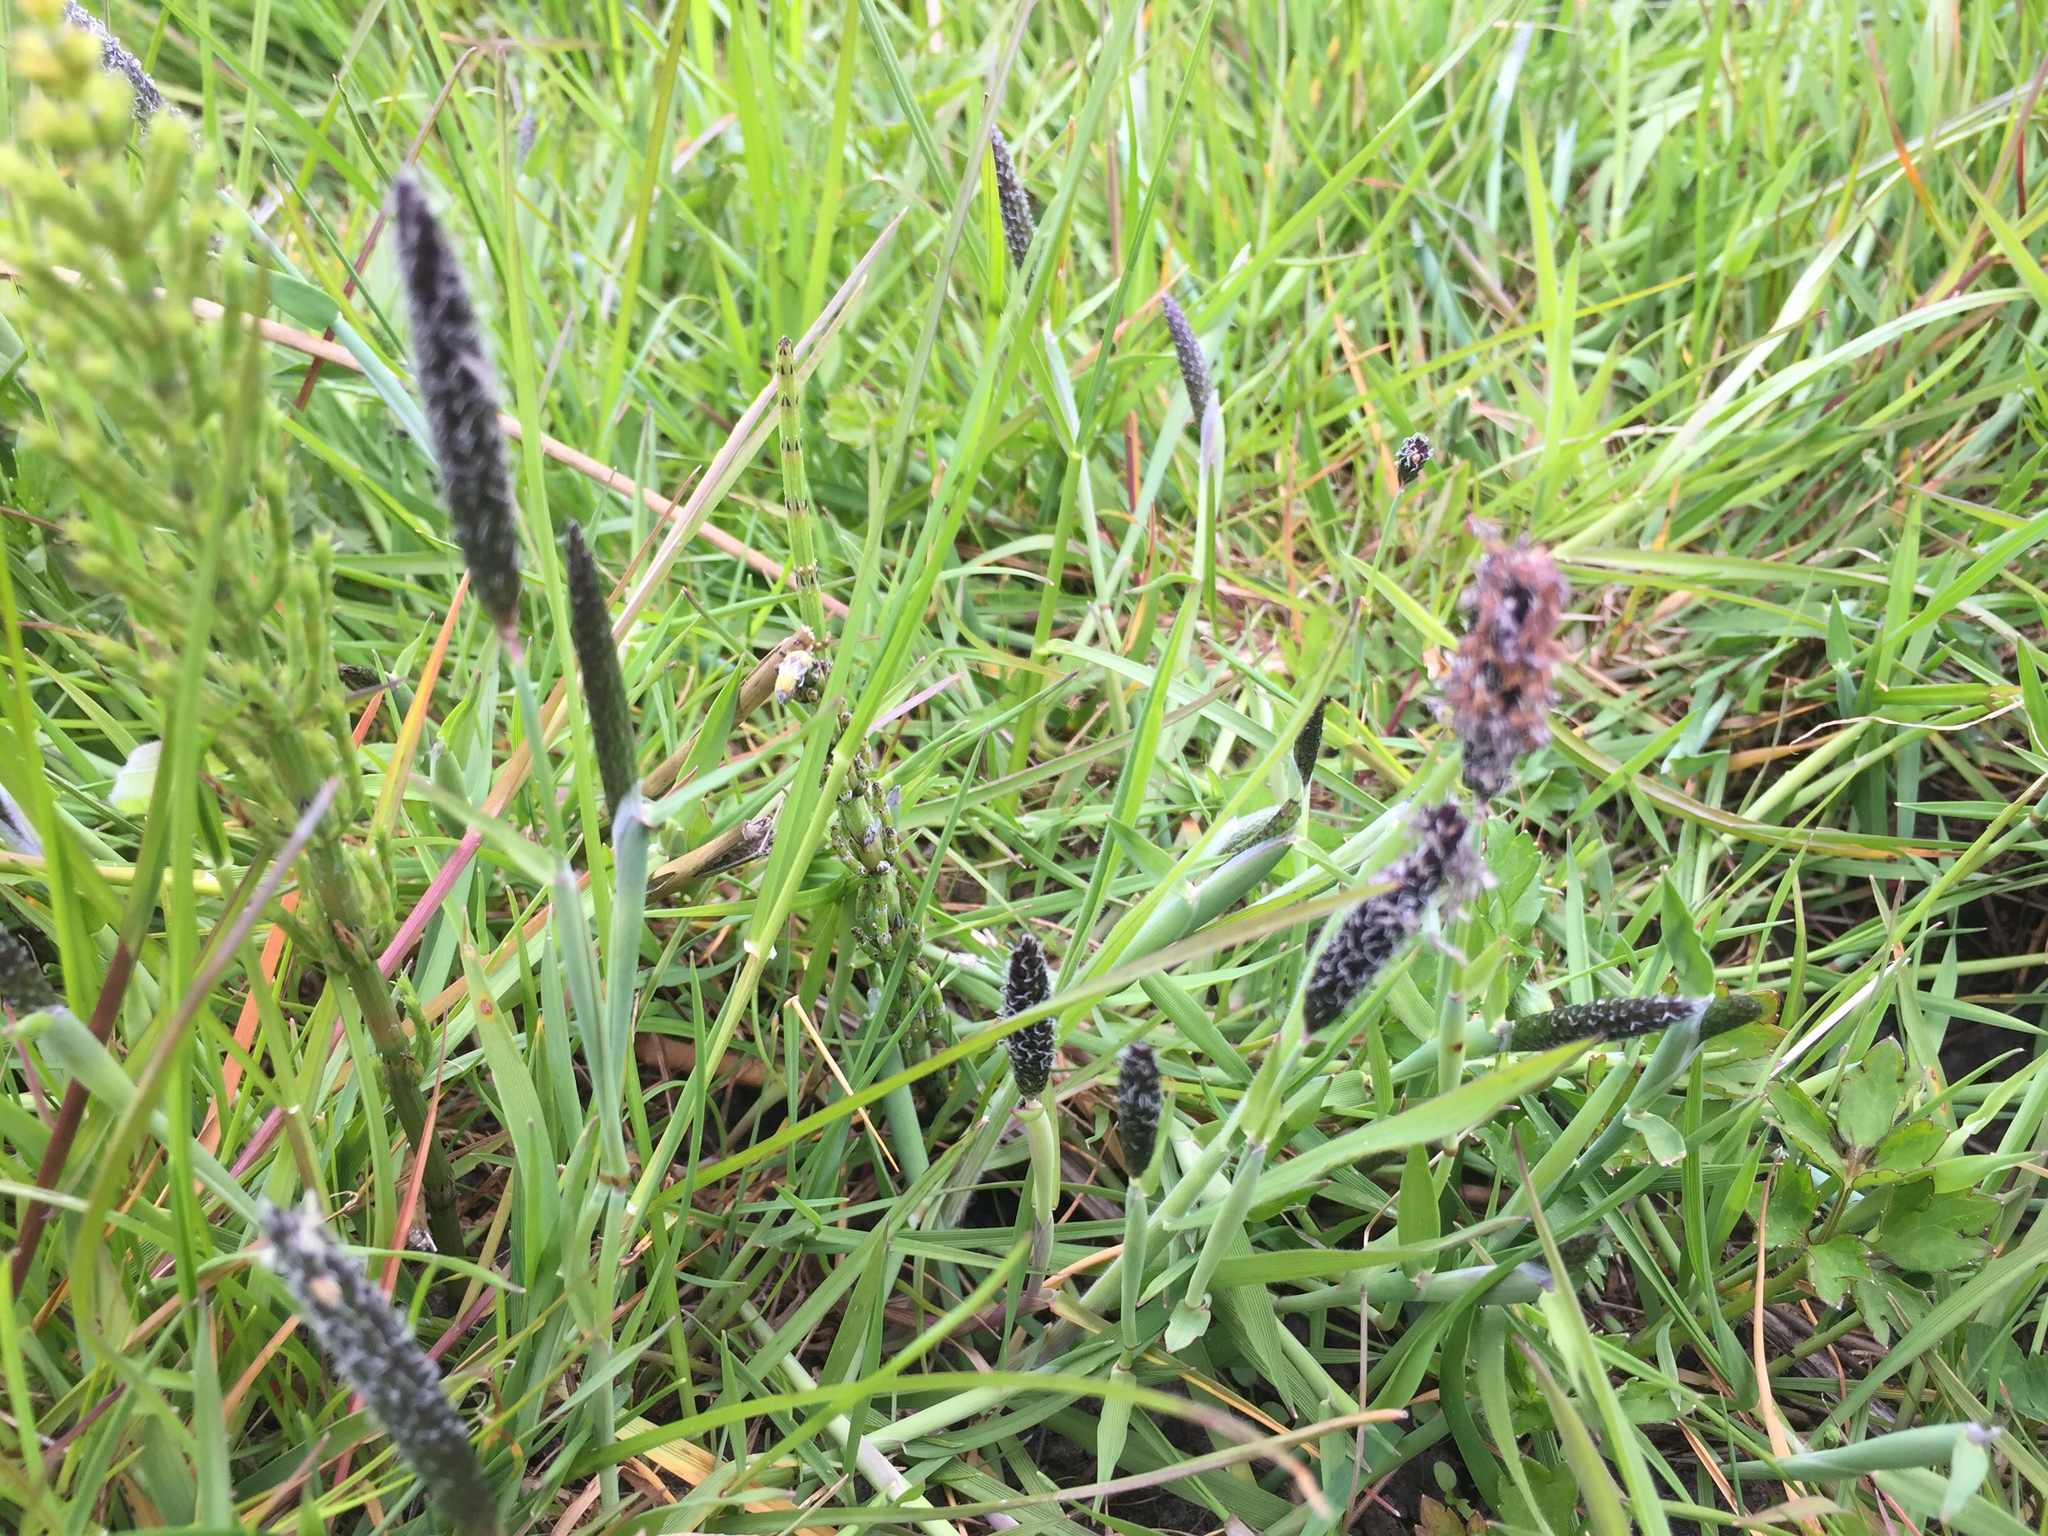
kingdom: Plantae
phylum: Tracheophyta
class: Liliopsida
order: Poales
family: Poaceae
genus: Alopecurus
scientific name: Alopecurus geniculatus
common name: Water foxtail
